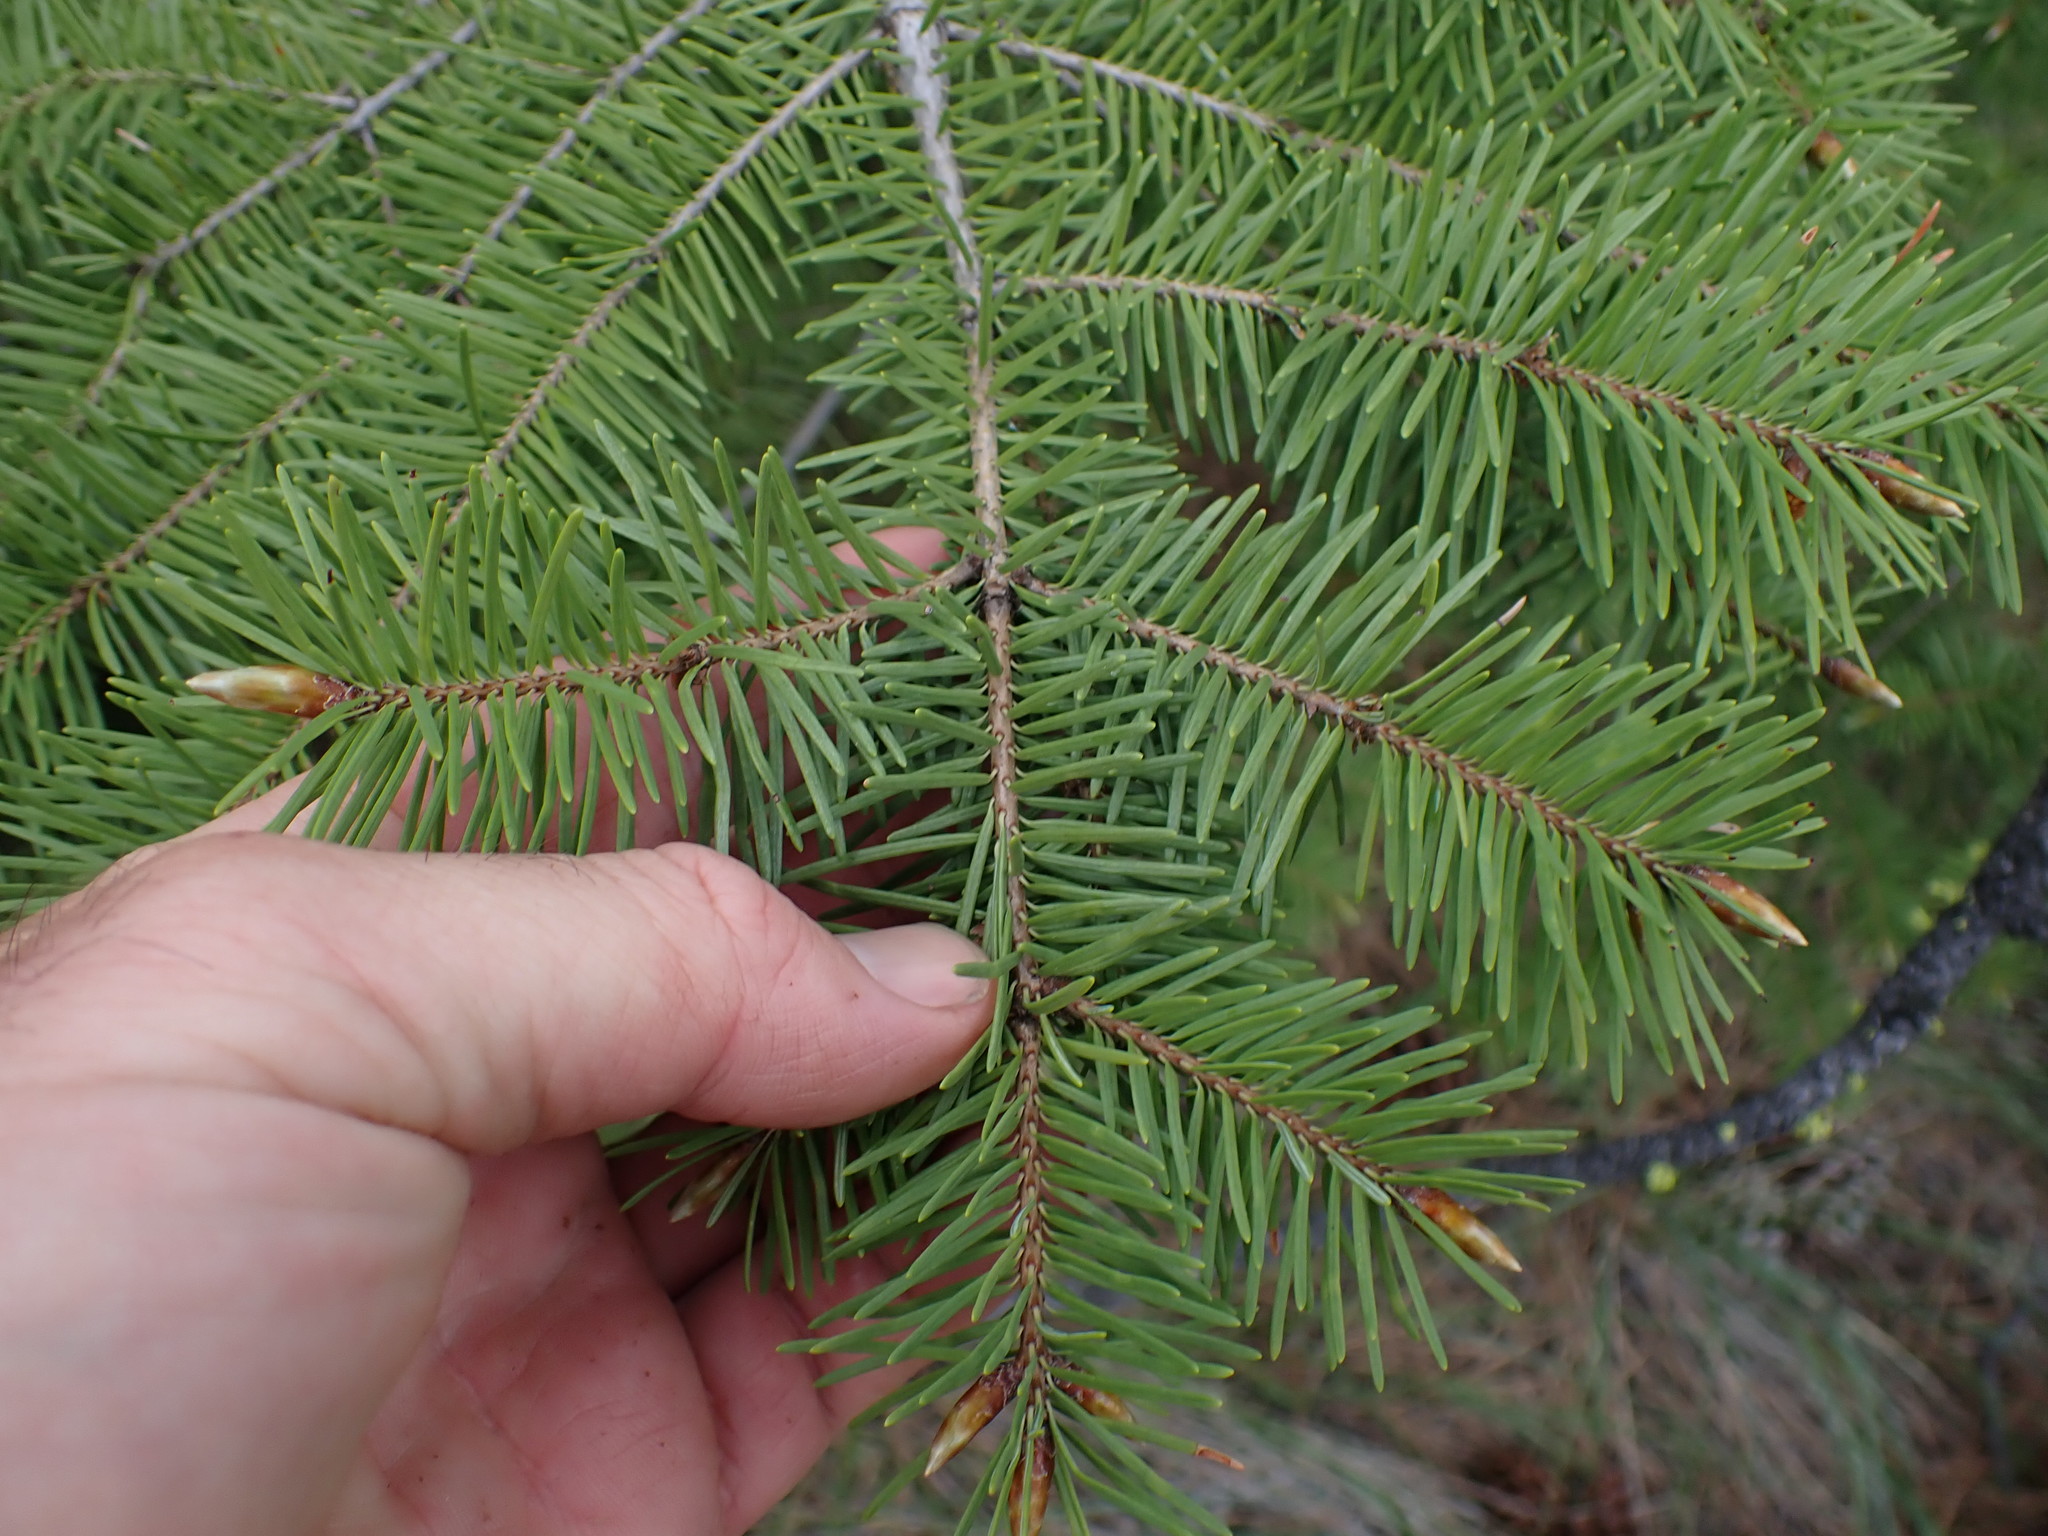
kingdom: Plantae
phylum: Tracheophyta
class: Pinopsida
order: Pinales
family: Pinaceae
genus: Pseudotsuga
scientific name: Pseudotsuga menziesii
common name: Douglas fir
